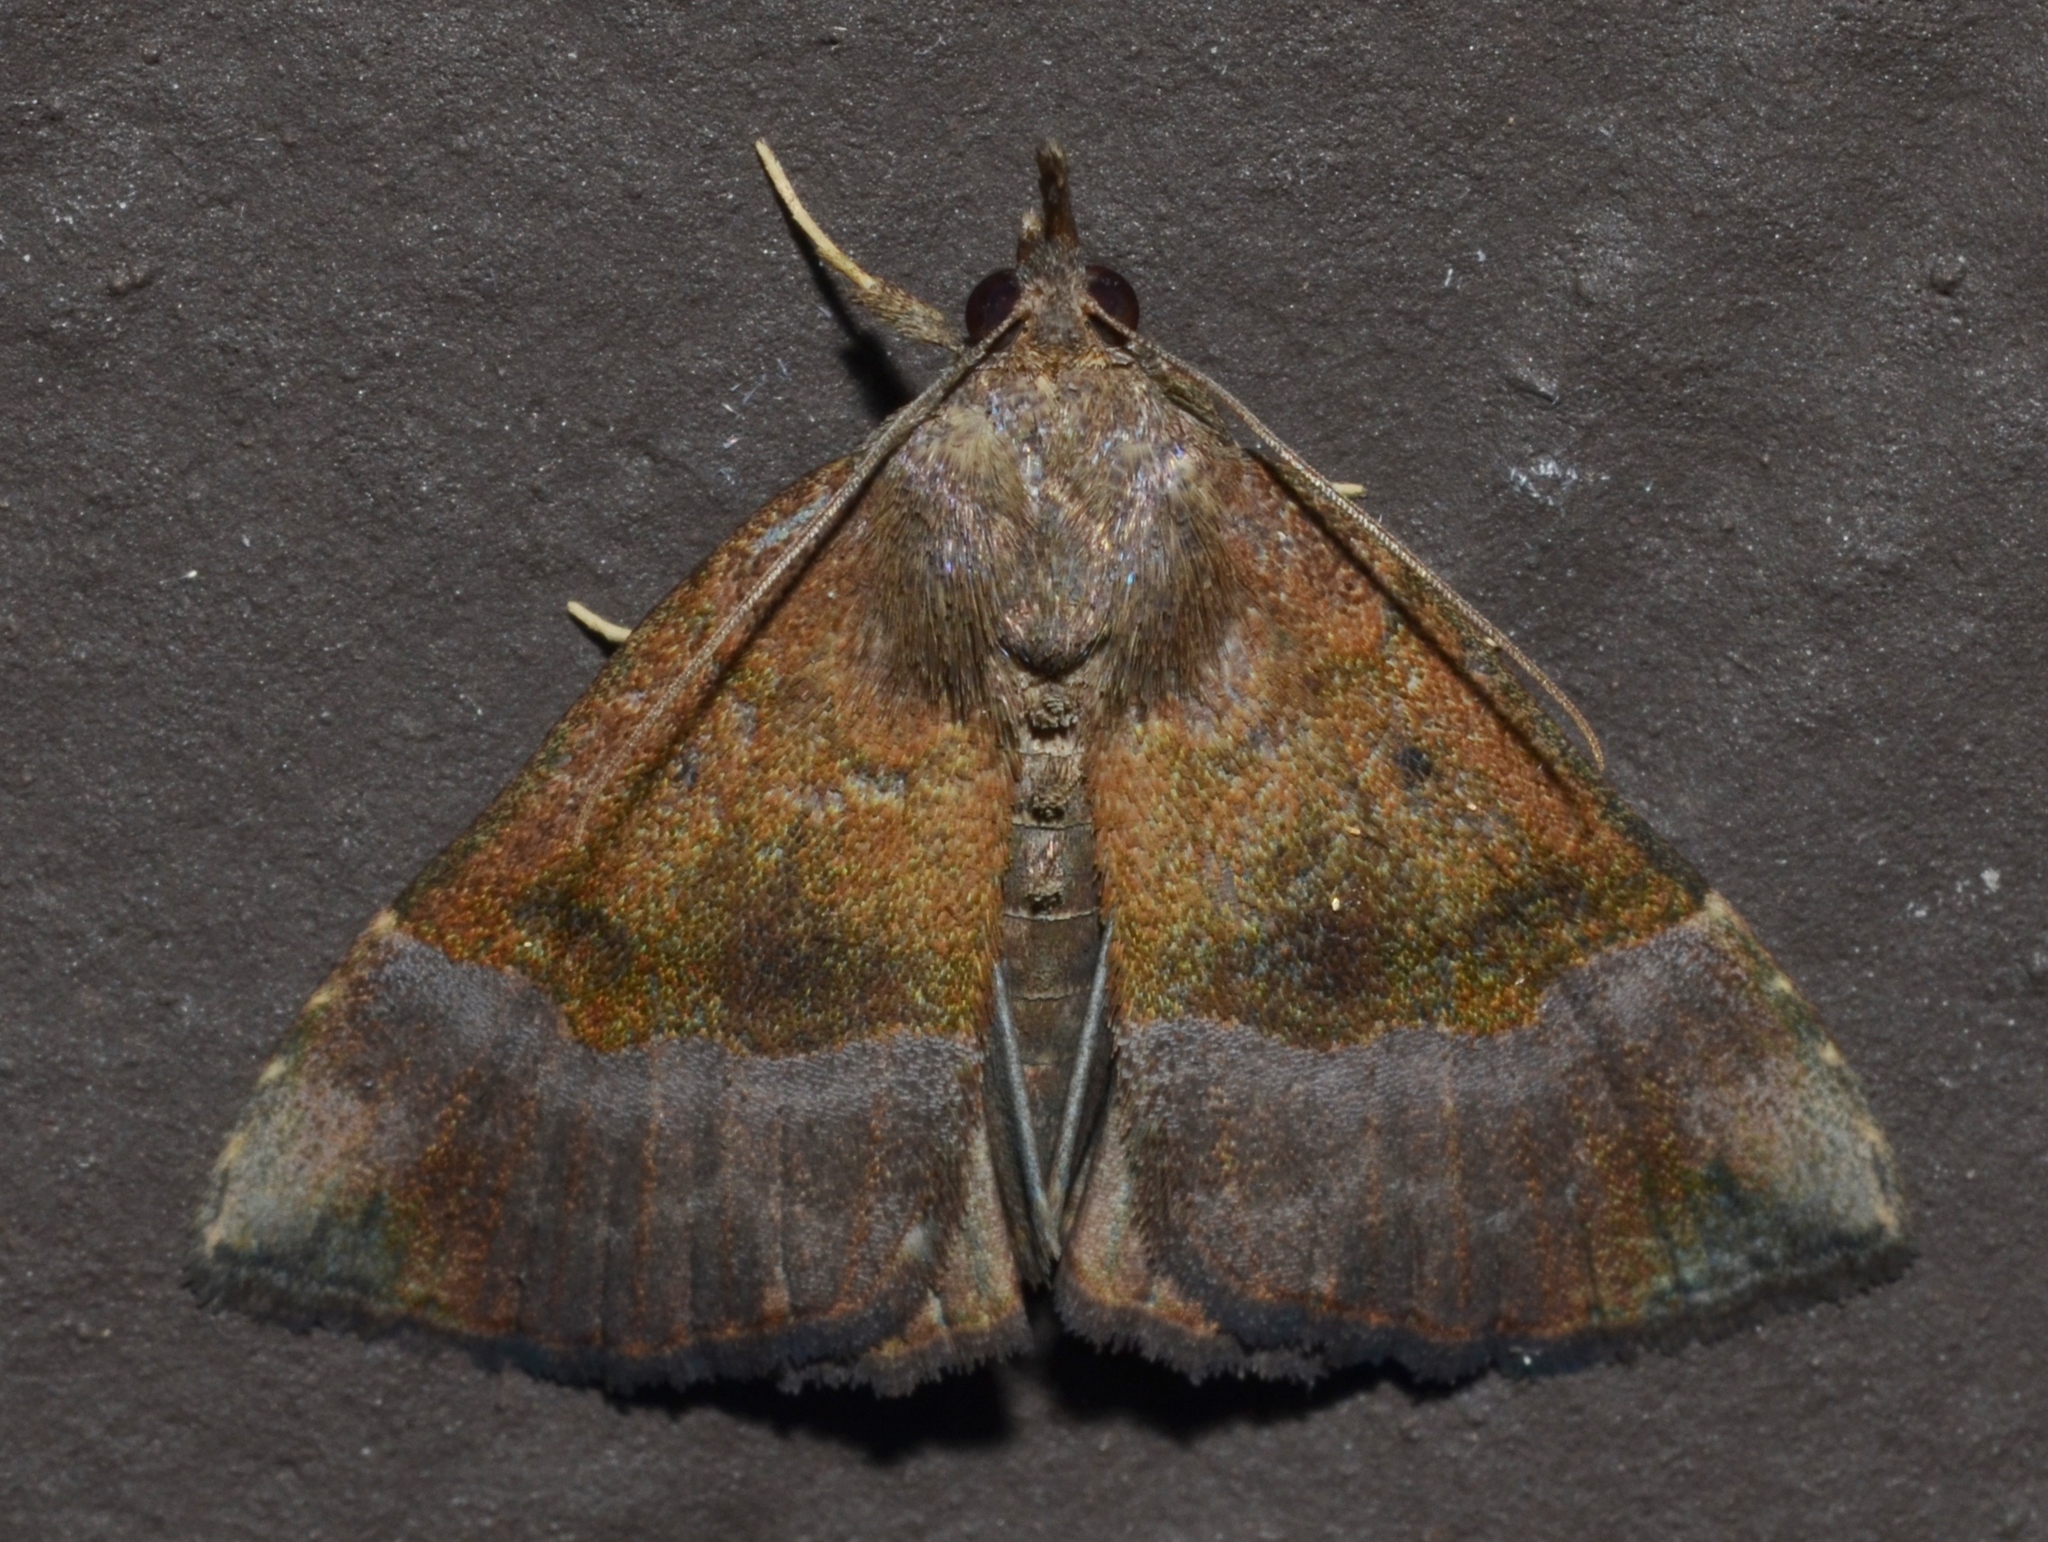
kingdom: Animalia
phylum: Arthropoda
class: Insecta
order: Lepidoptera
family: Erebidae
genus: Hypena
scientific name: Hypena madefactalis
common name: Gray-edged snout
